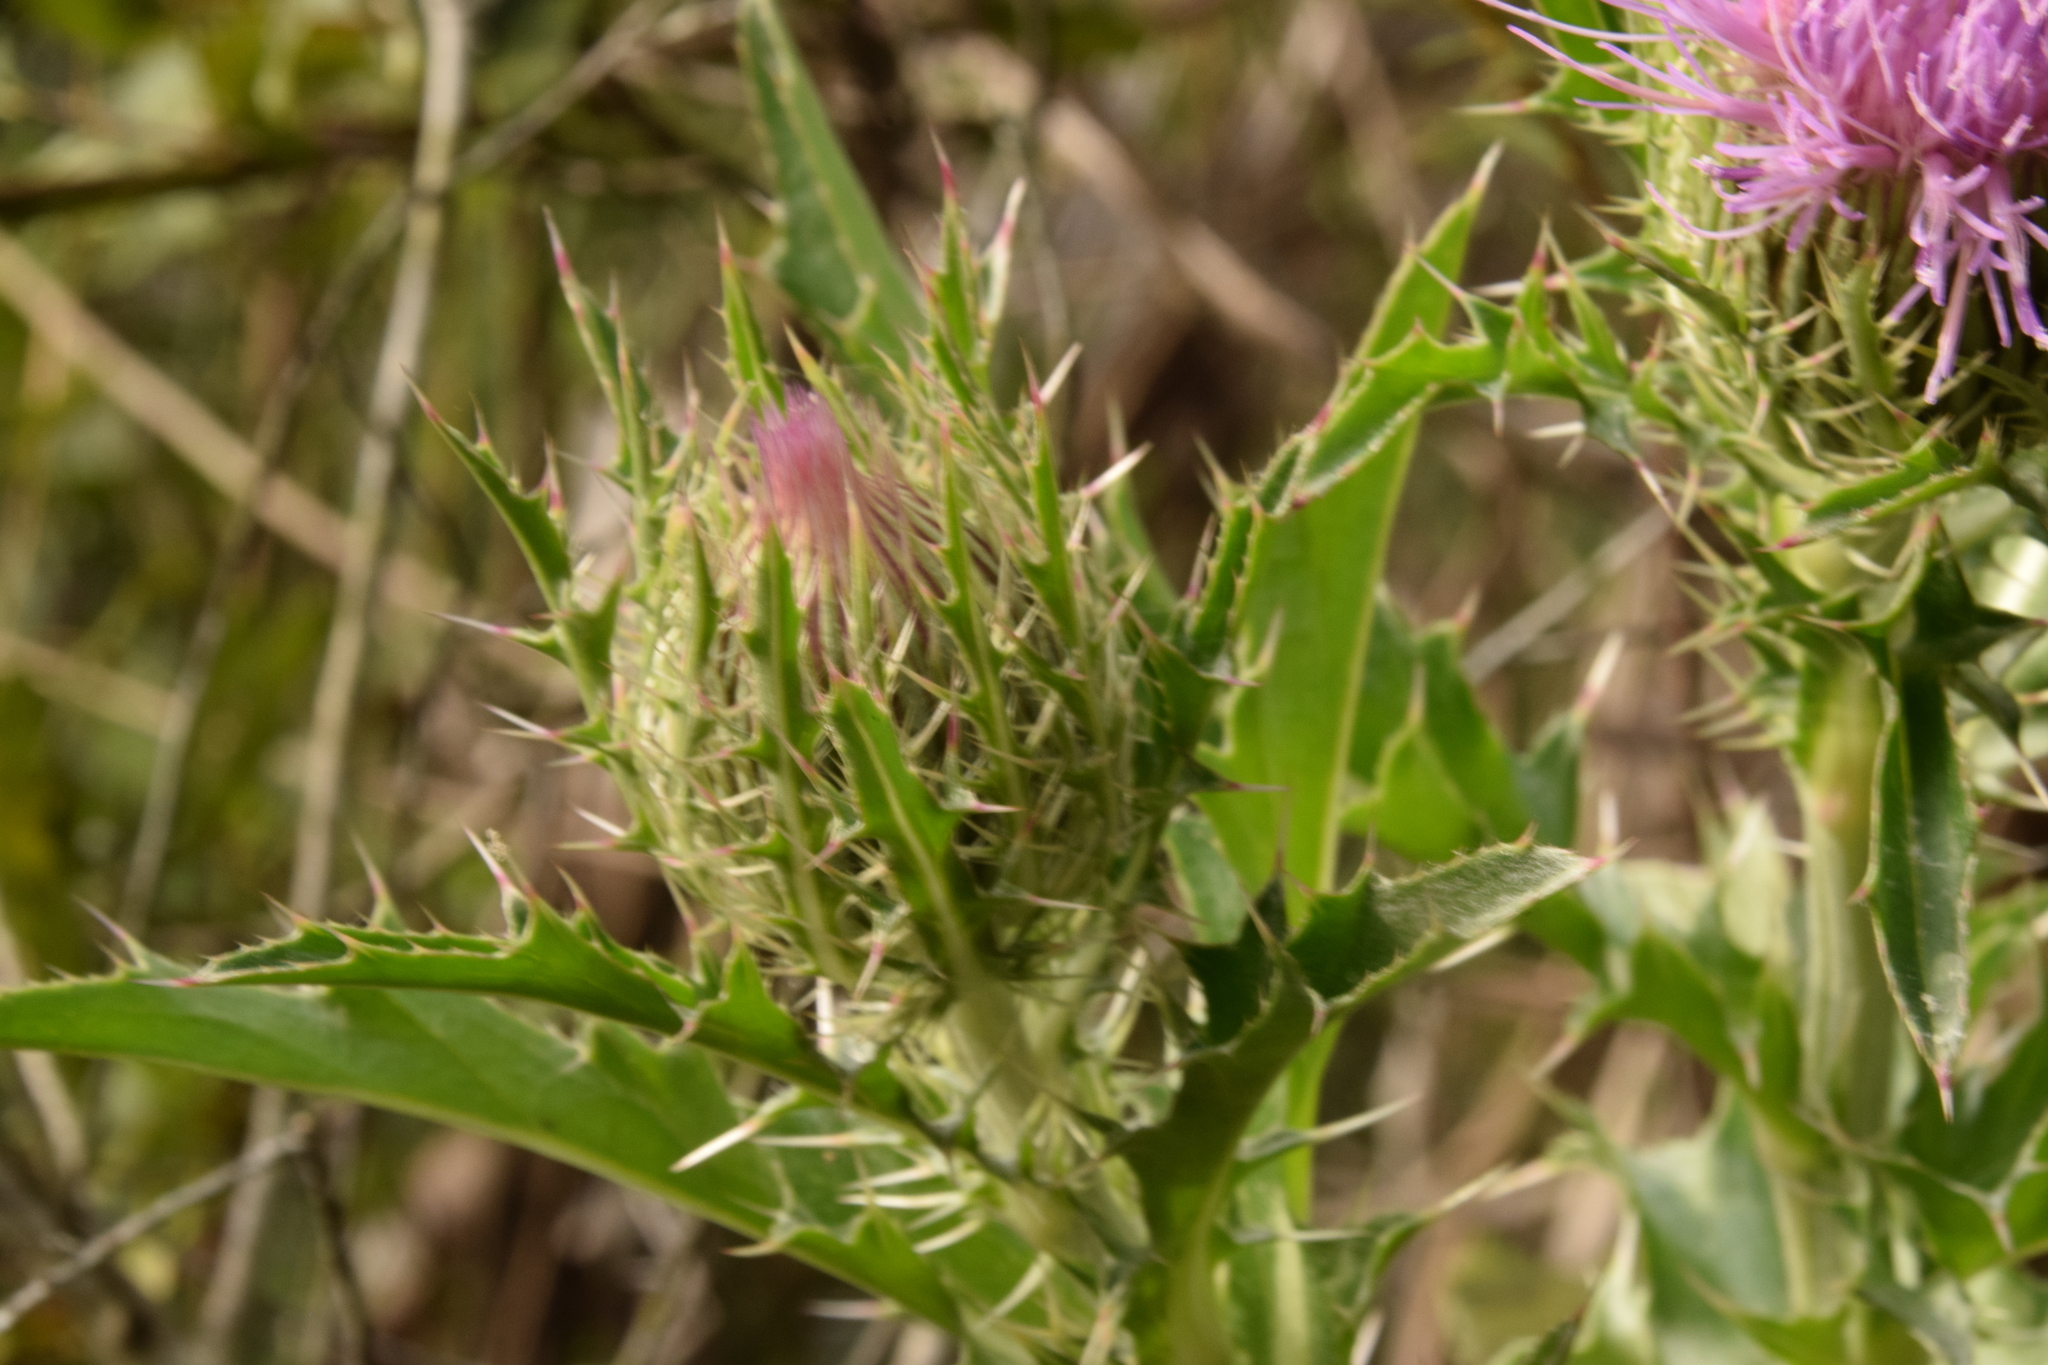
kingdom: Plantae
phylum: Tracheophyta
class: Magnoliopsida
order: Asterales
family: Asteraceae
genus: Cirsium
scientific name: Cirsium horridulum
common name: Bristly thistle
